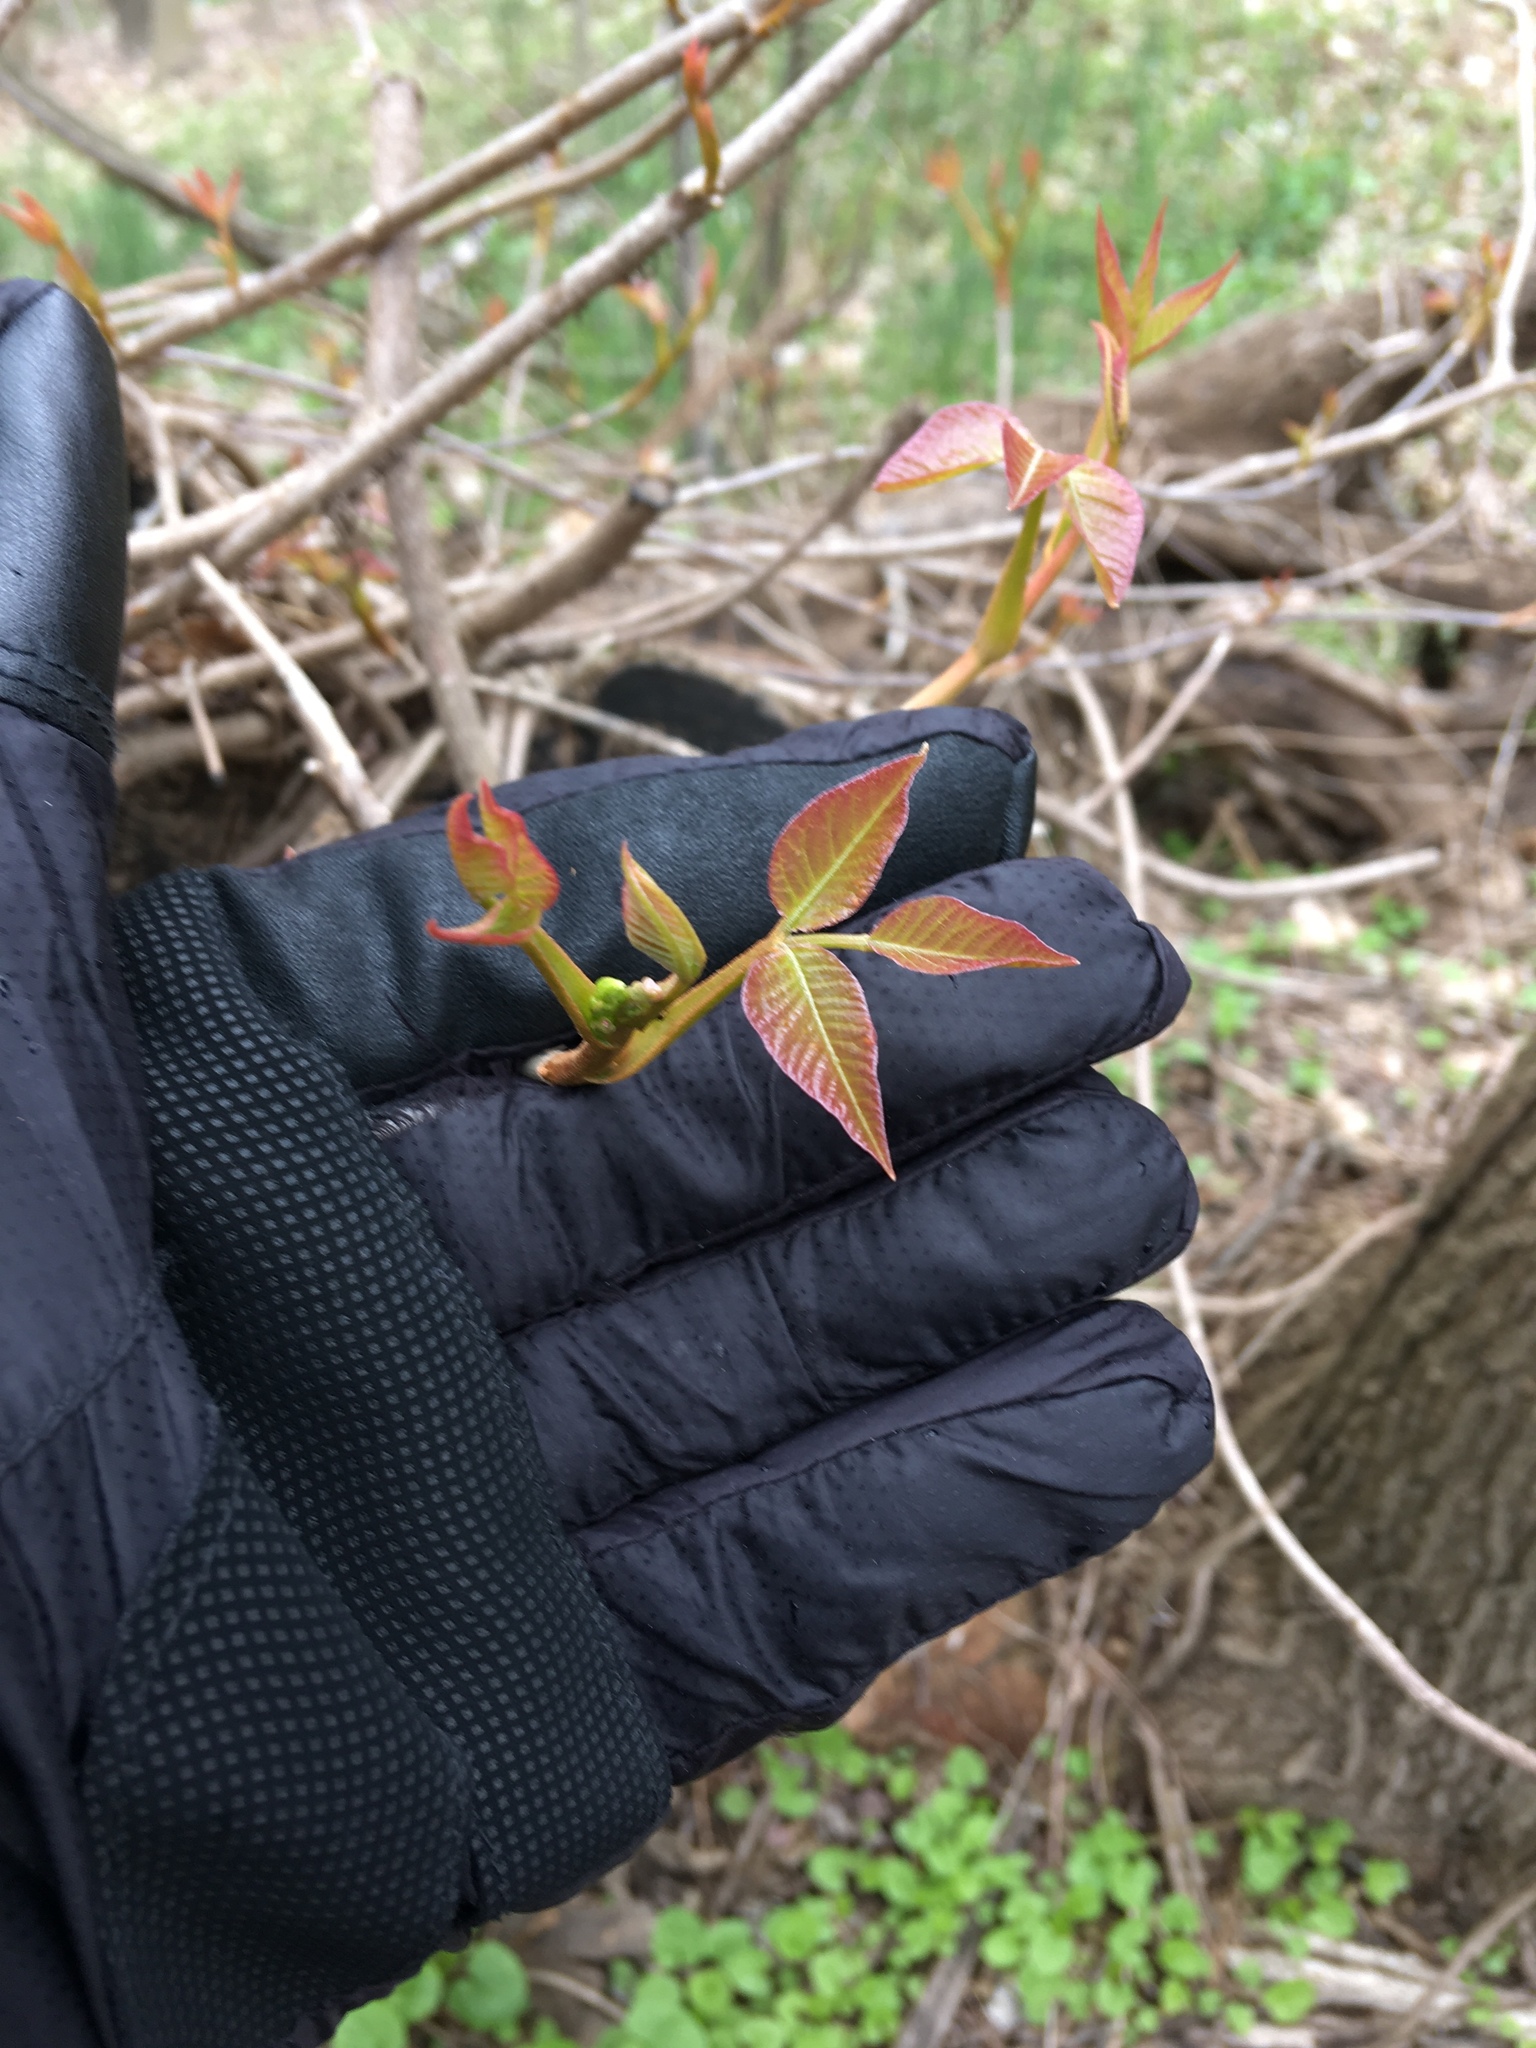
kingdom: Plantae
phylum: Tracheophyta
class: Magnoliopsida
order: Sapindales
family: Anacardiaceae
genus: Toxicodendron
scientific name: Toxicodendron radicans
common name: Poison ivy
